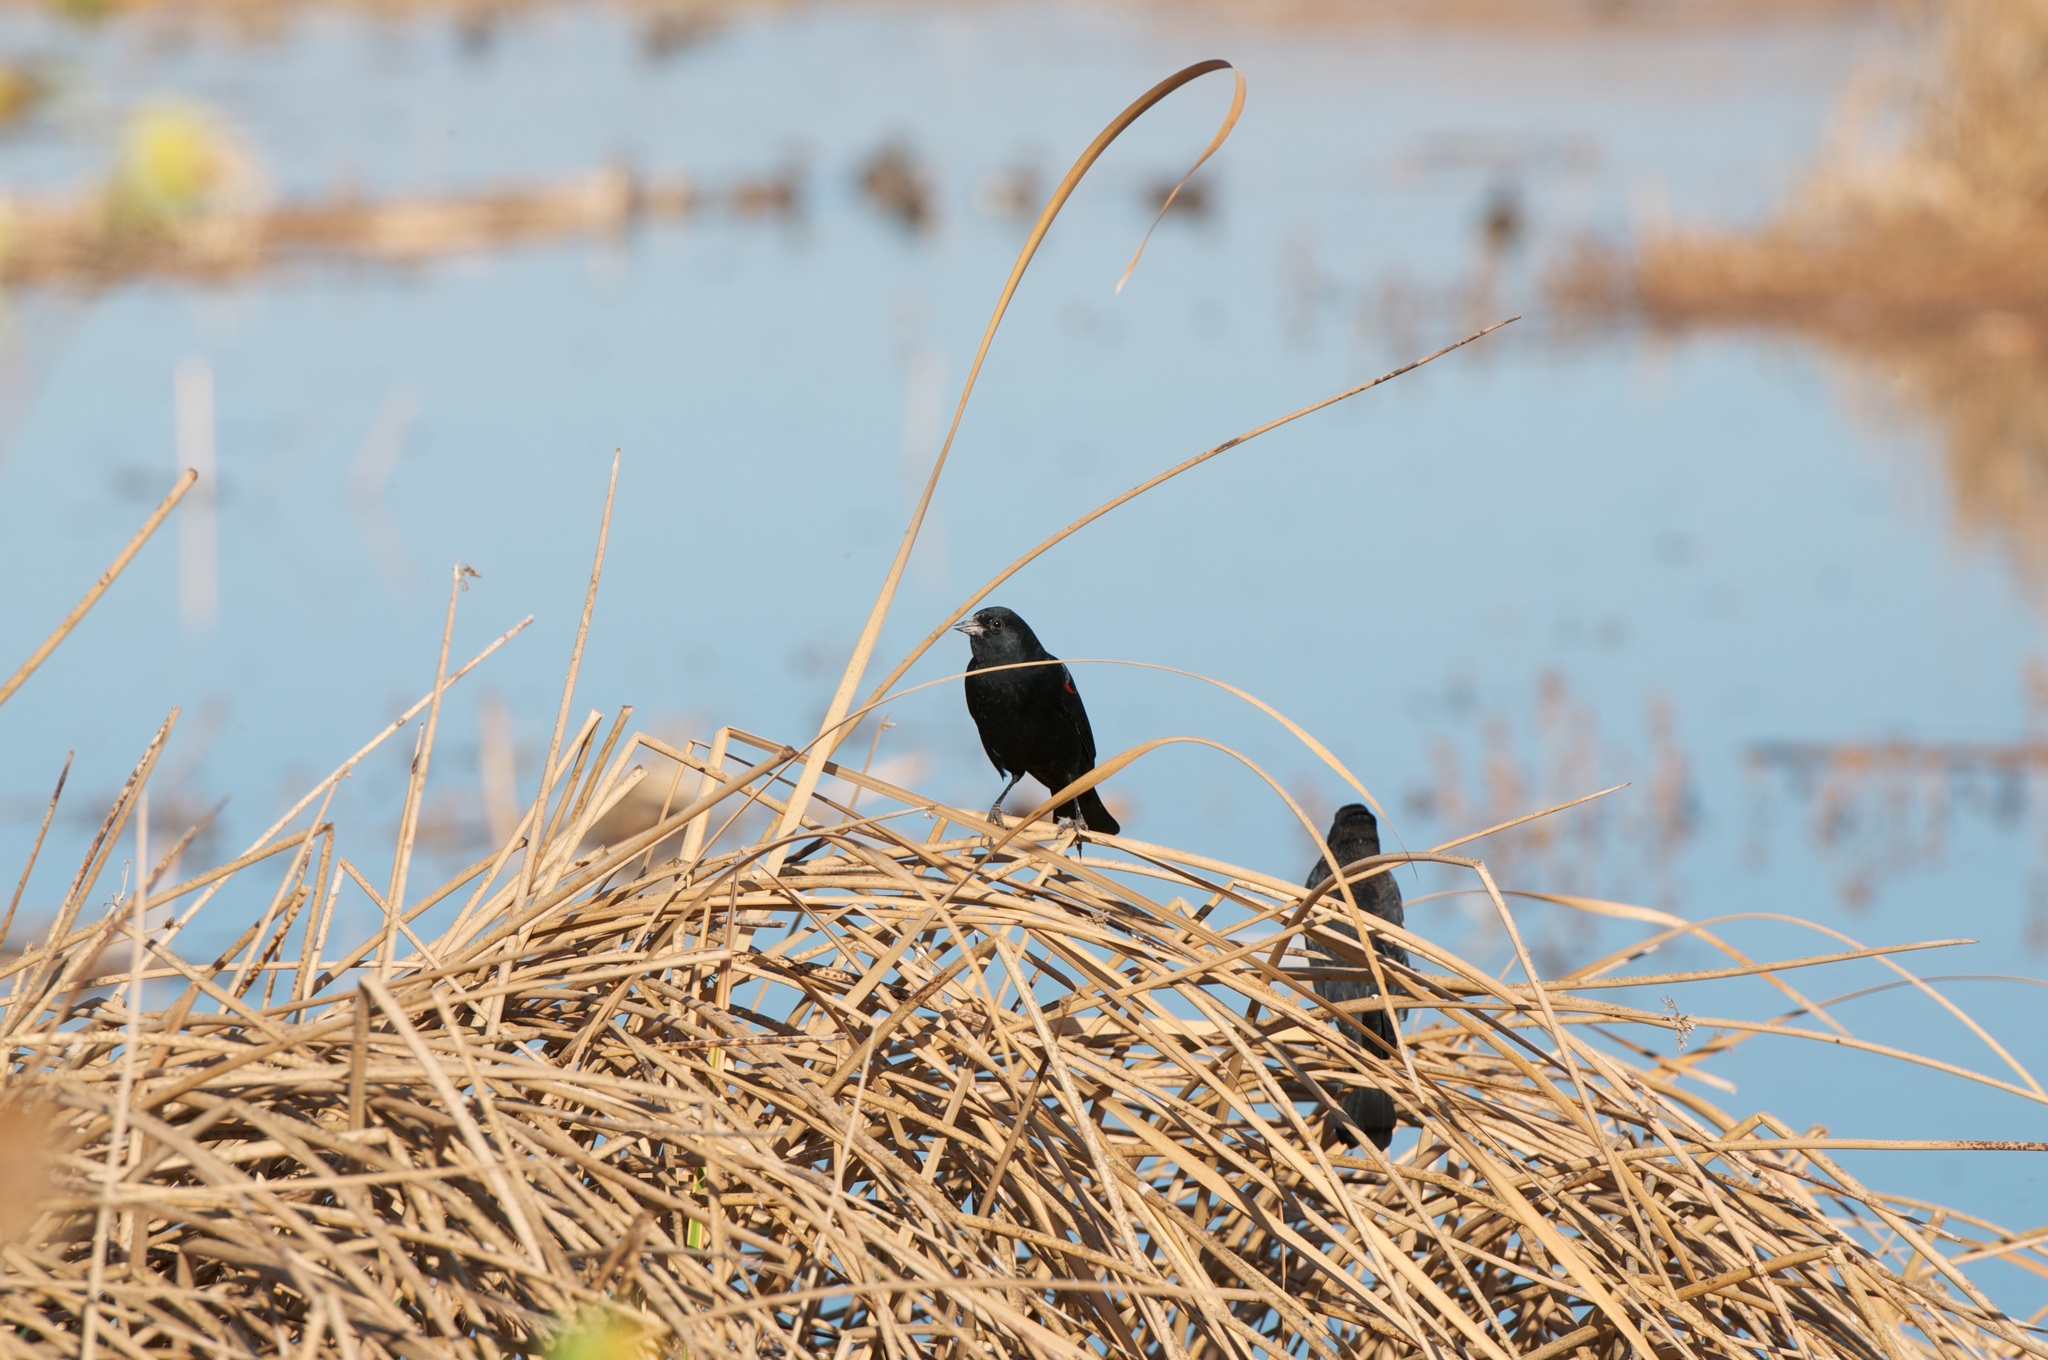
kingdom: Animalia
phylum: Chordata
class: Aves
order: Passeriformes
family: Icteridae
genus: Agelaius
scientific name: Agelaius phoeniceus
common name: Red-winged blackbird
